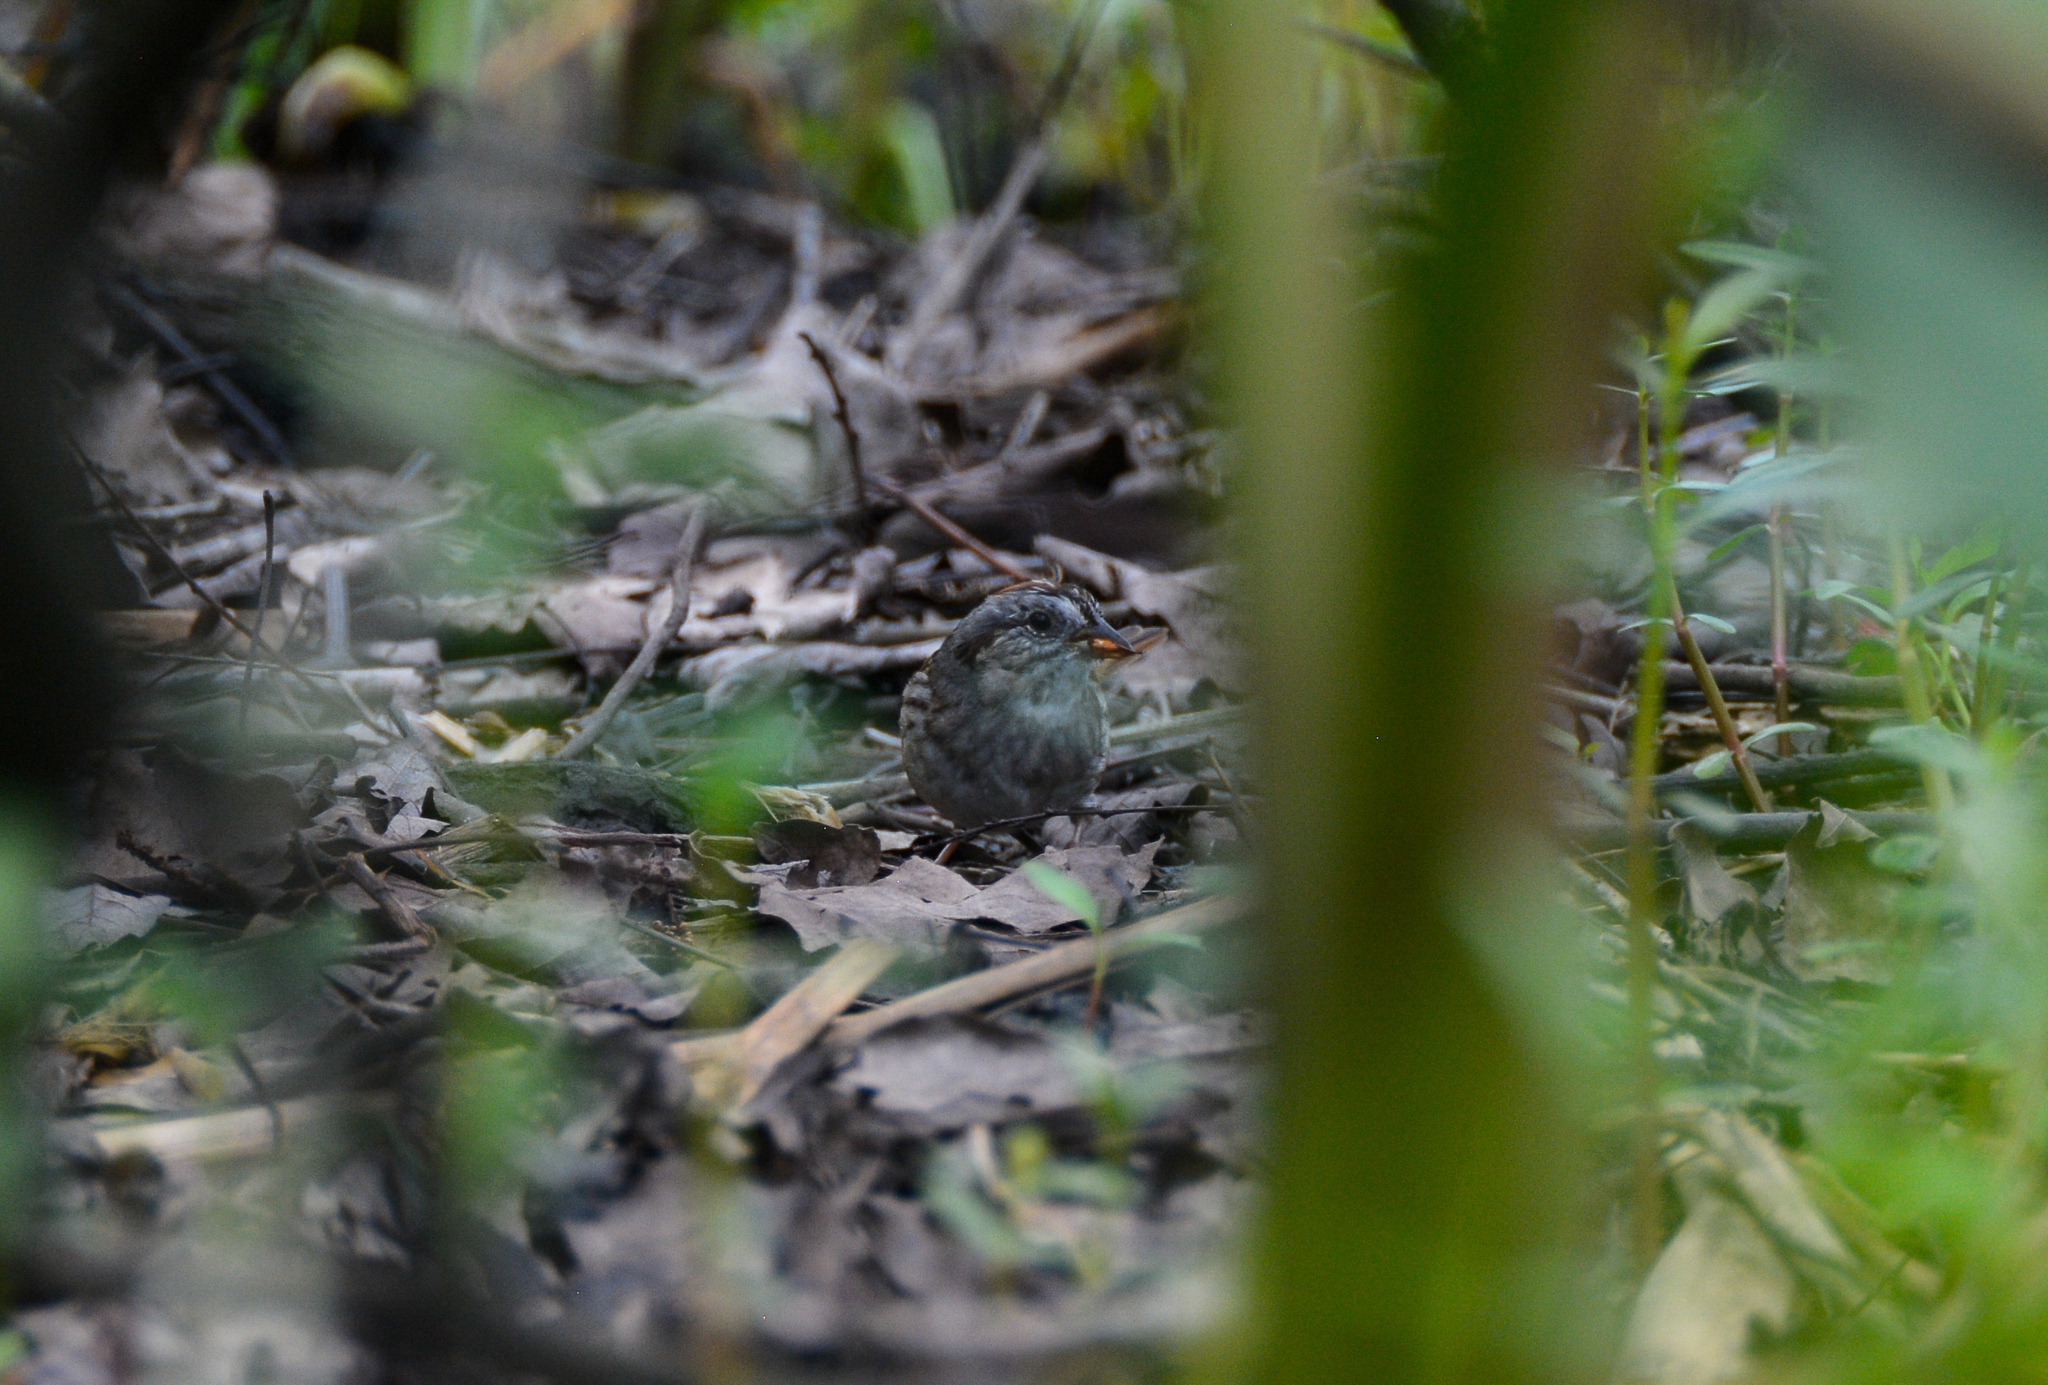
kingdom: Animalia
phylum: Chordata
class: Aves
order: Passeriformes
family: Passerellidae
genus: Melospiza
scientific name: Melospiza georgiana
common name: Swamp sparrow
